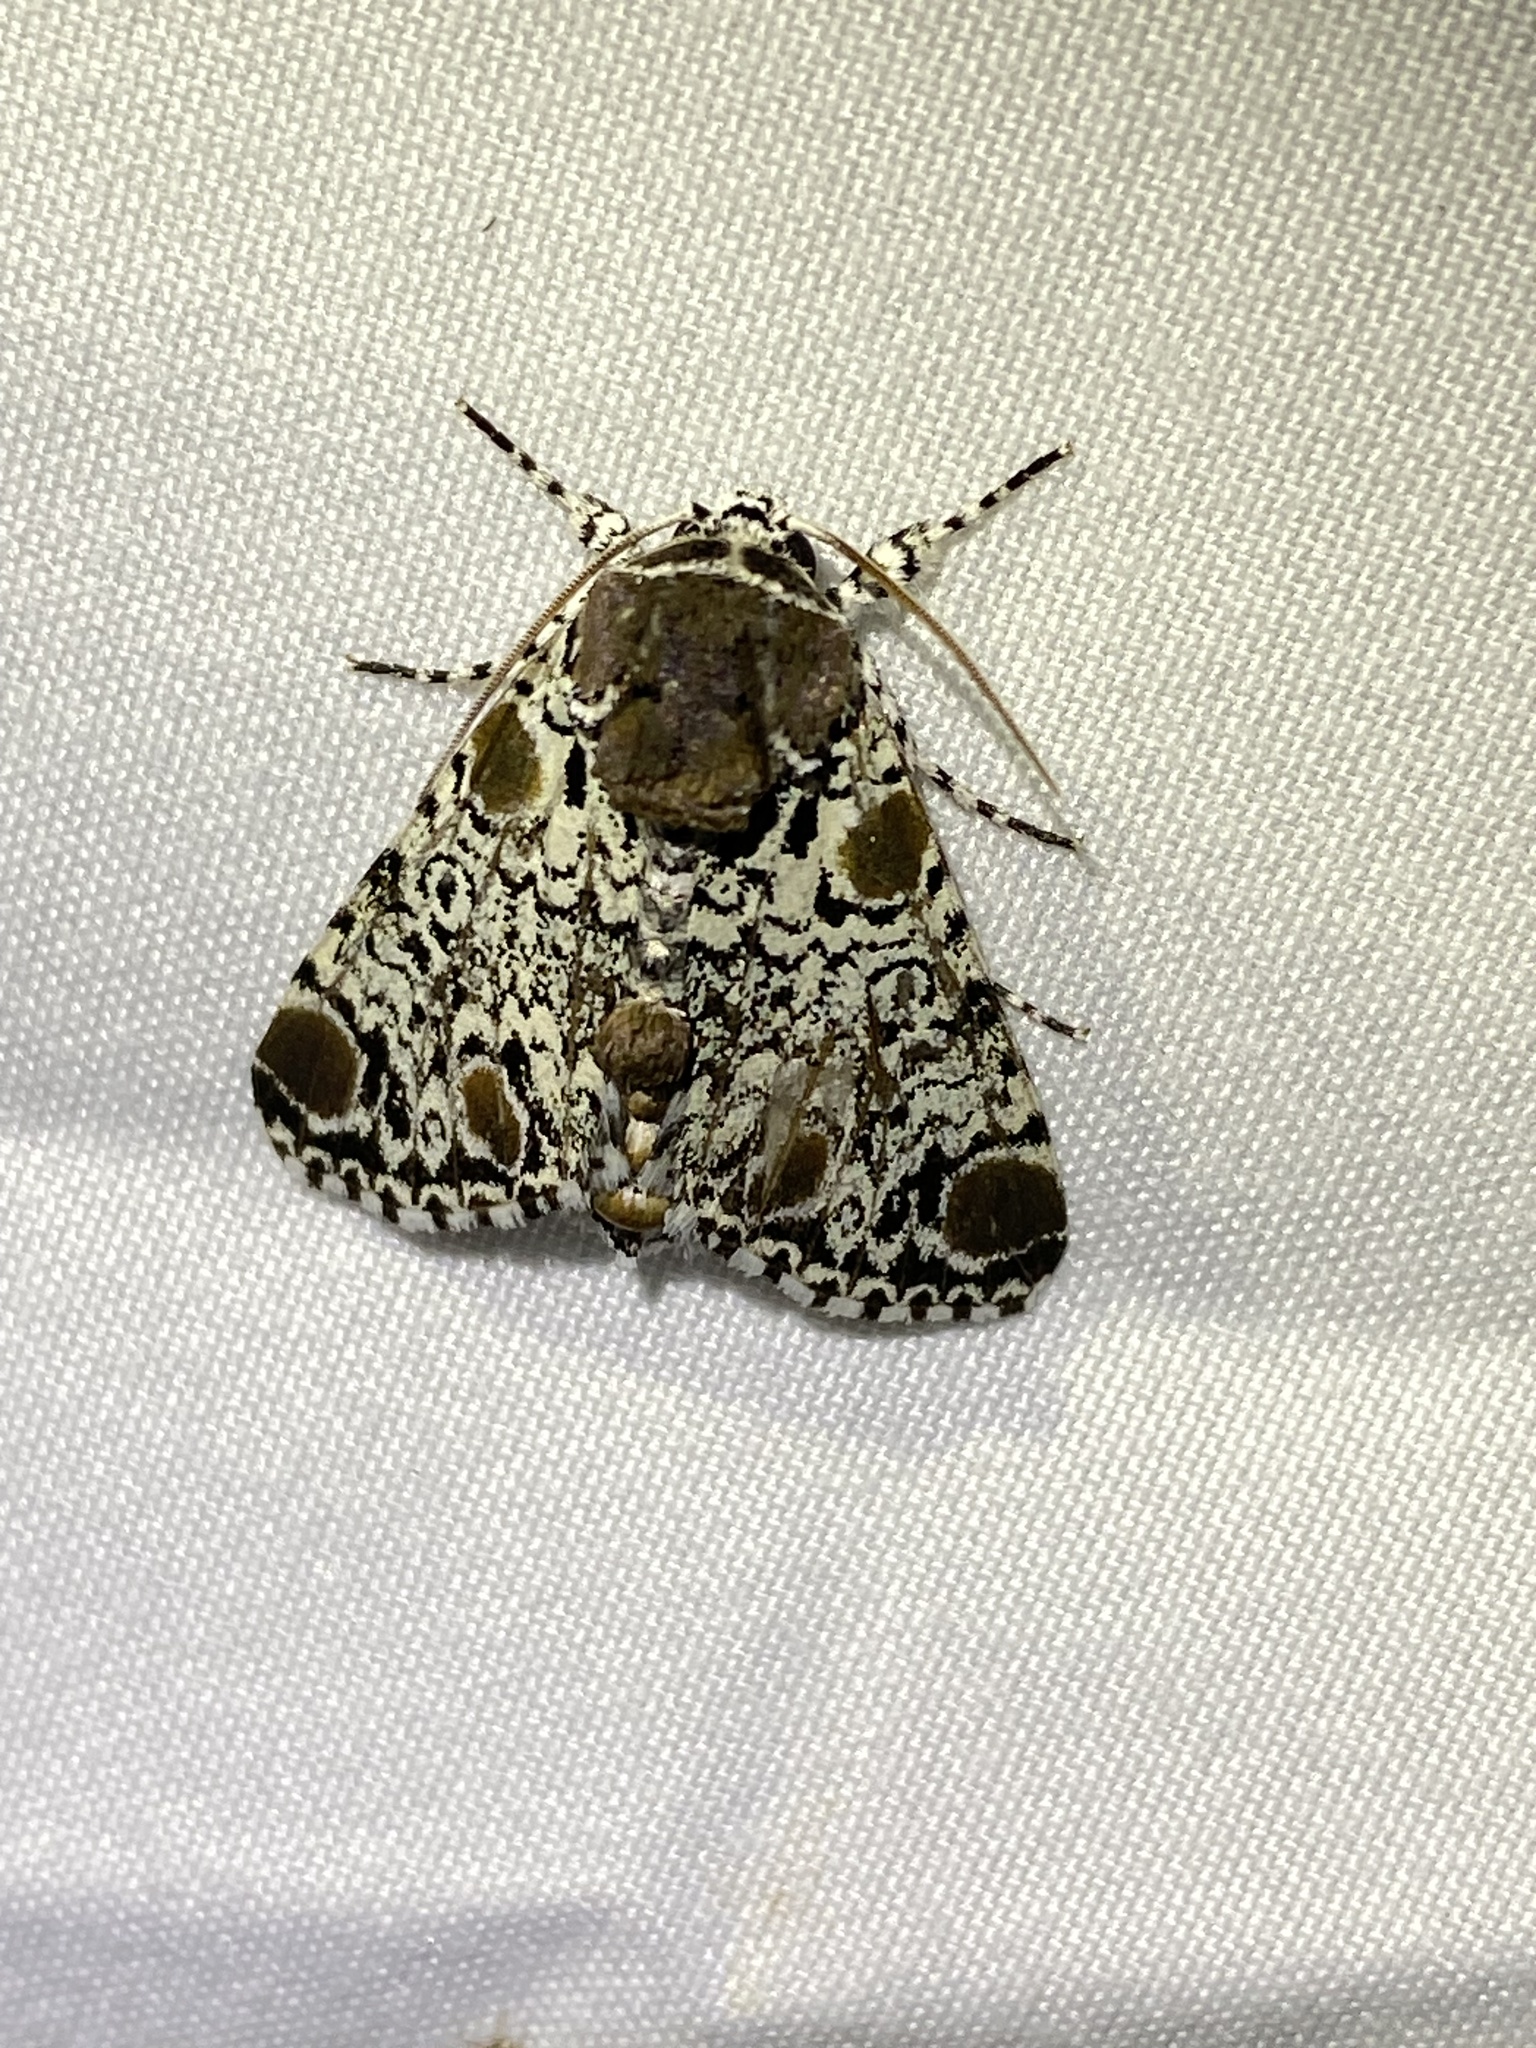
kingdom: Animalia
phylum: Arthropoda
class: Insecta
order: Lepidoptera
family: Noctuidae
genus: Harrisimemna
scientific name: Harrisimemna trisignata
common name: Harris threespot
